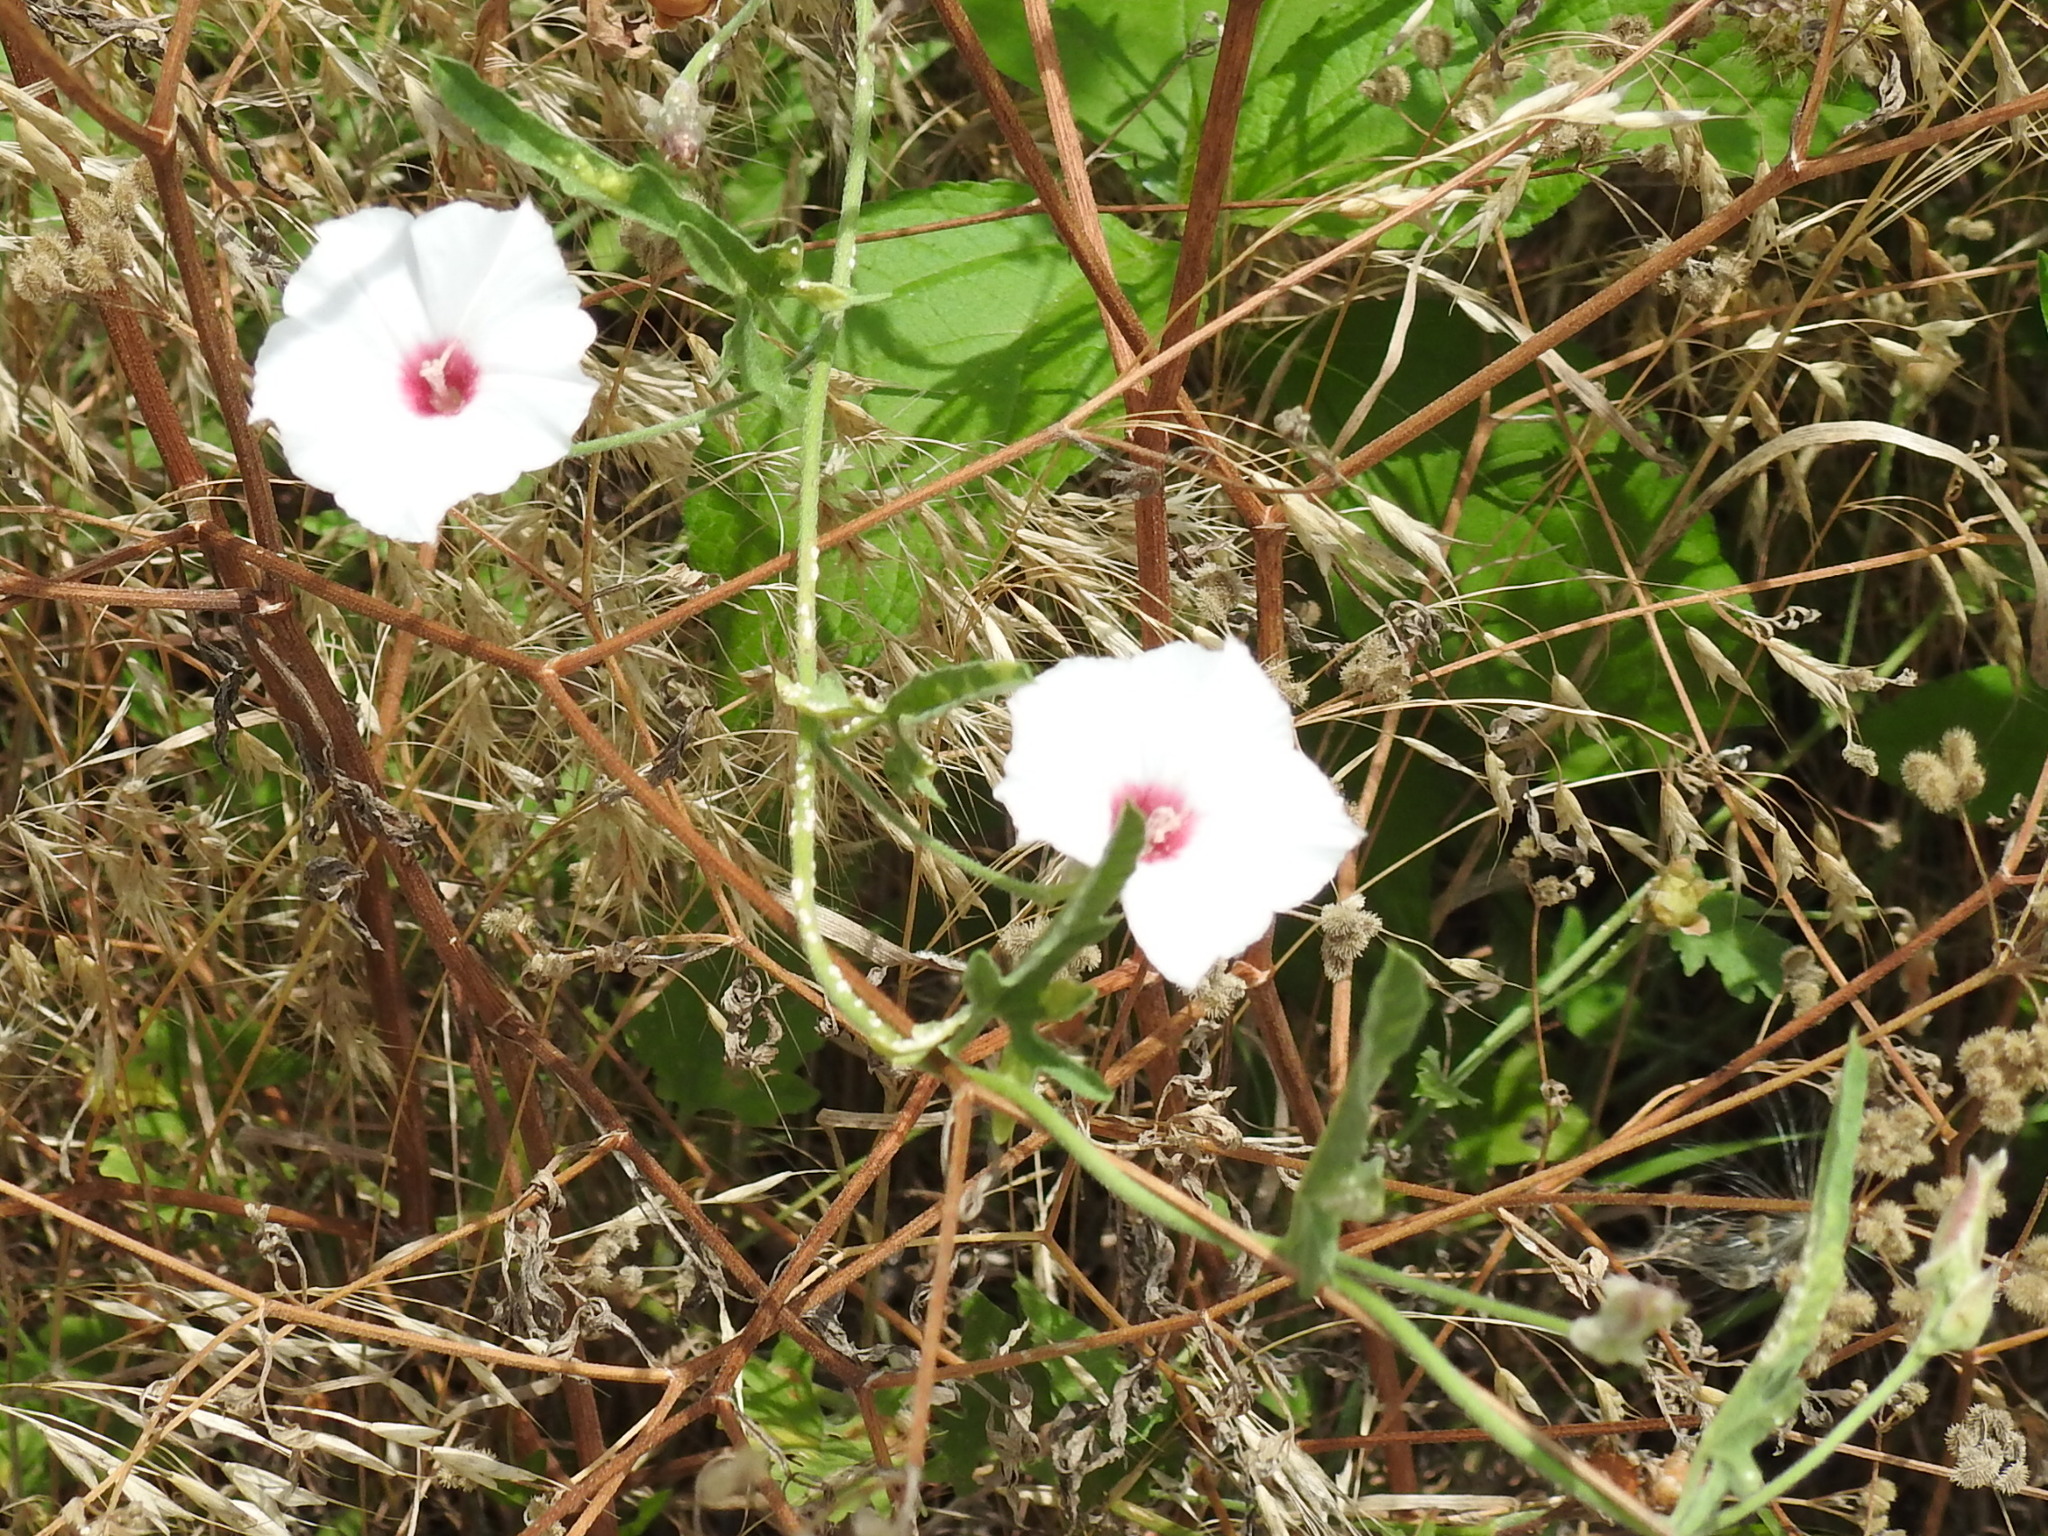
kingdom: Plantae
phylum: Tracheophyta
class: Magnoliopsida
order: Solanales
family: Convolvulaceae
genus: Convolvulus
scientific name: Convolvulus equitans
